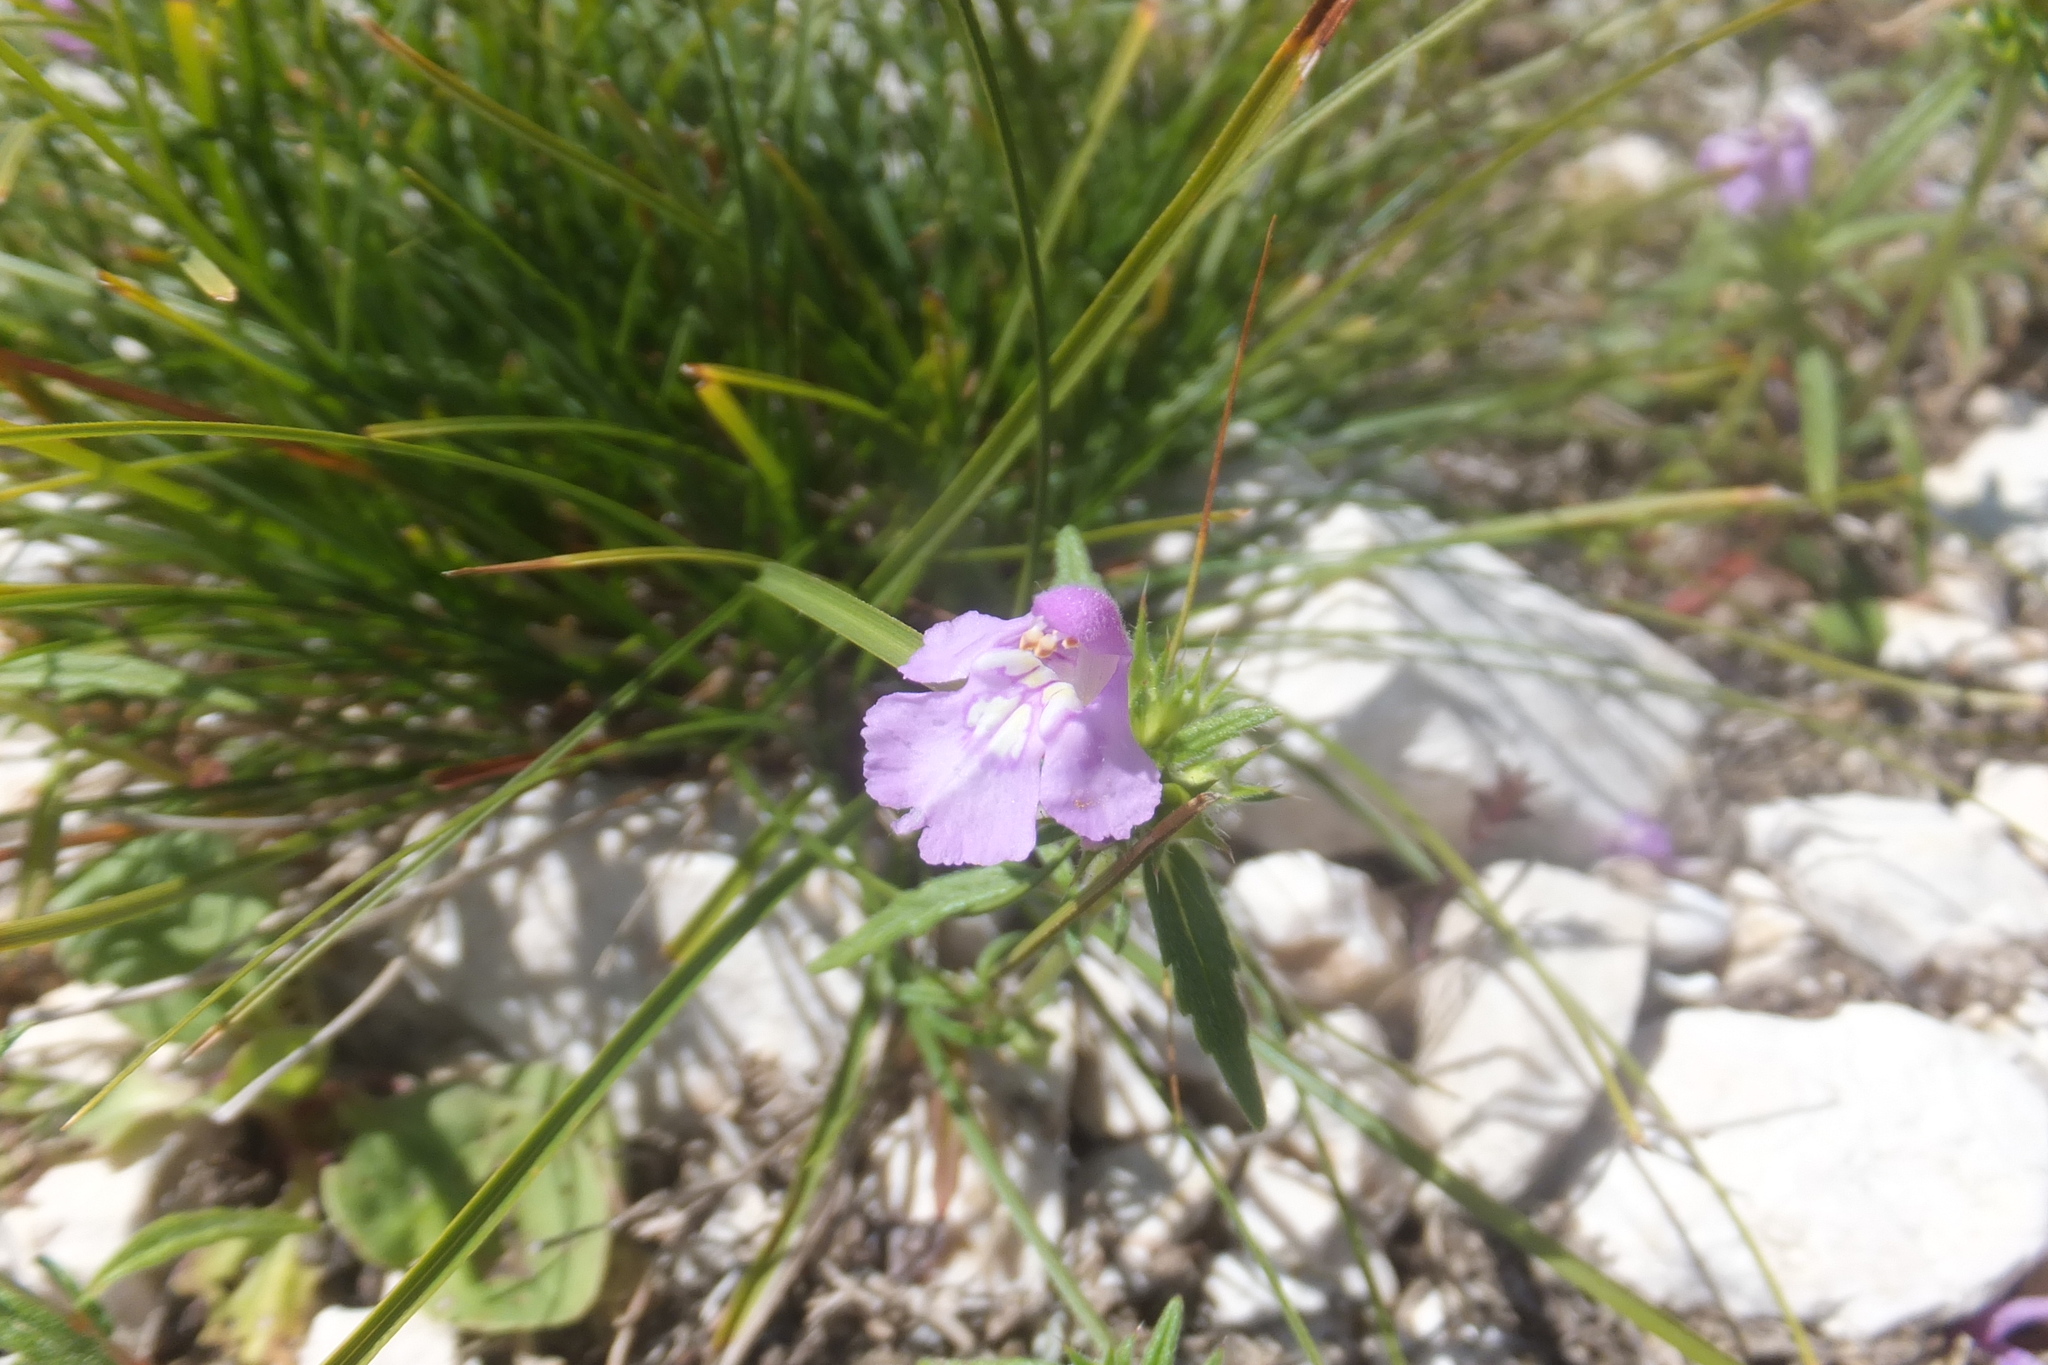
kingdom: Plantae
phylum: Tracheophyta
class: Magnoliopsida
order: Lamiales
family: Lamiaceae
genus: Galeopsis
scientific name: Galeopsis angustifolia
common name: Red hemp-nettle
